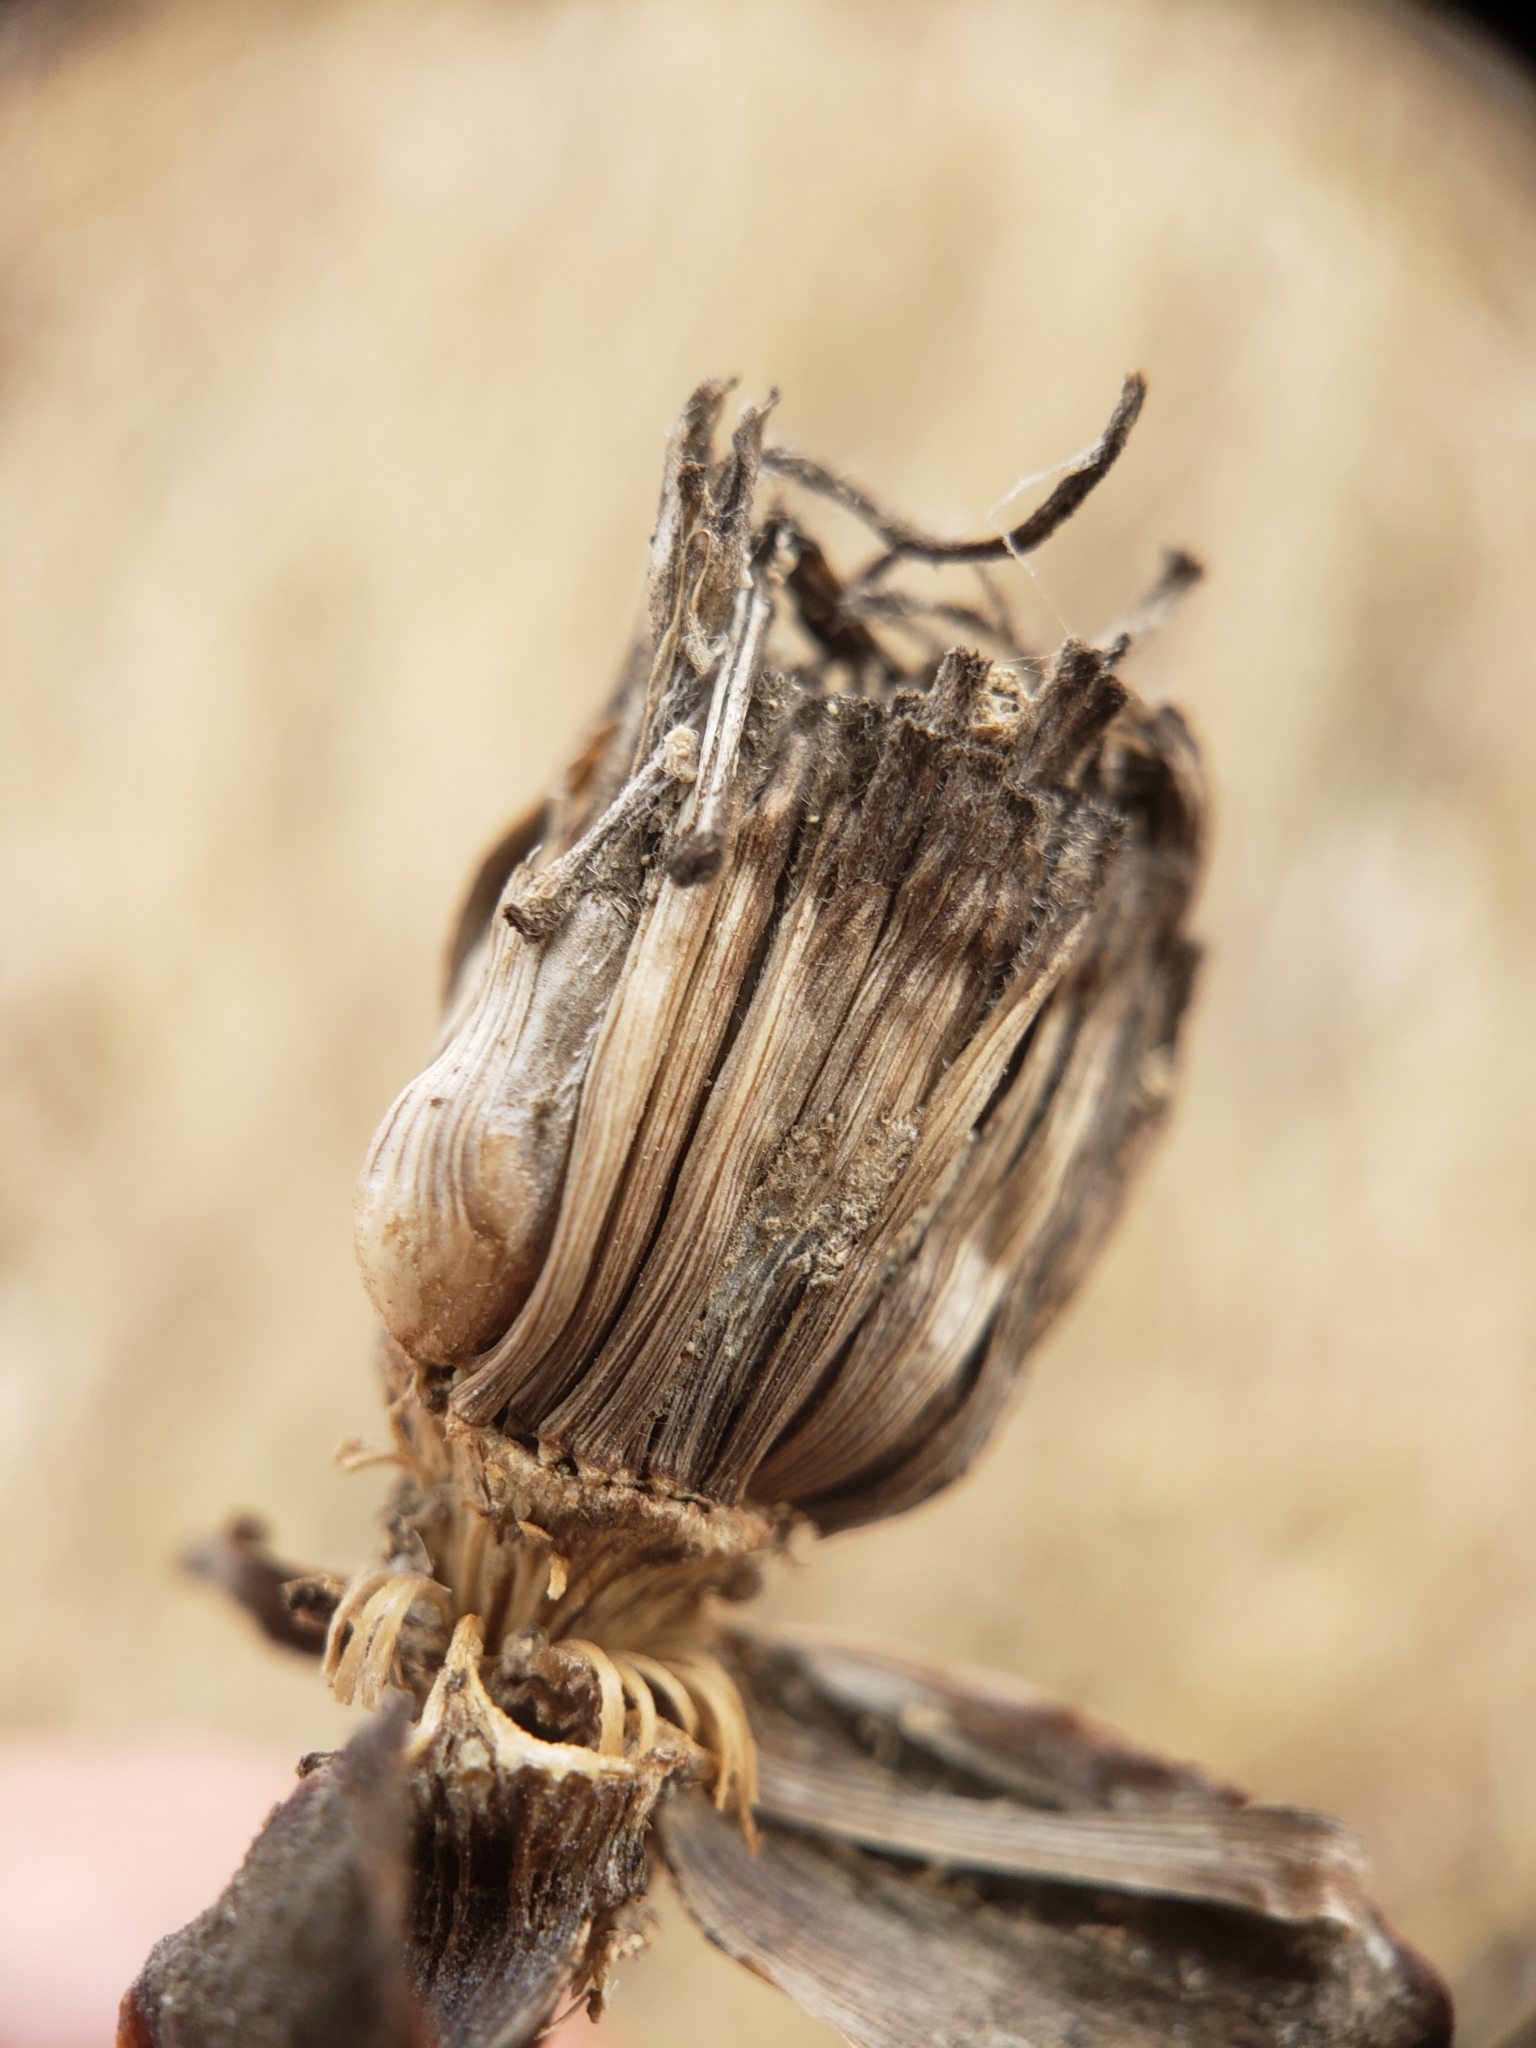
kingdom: Animalia
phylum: Arthropoda
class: Insecta
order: Hymenoptera
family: Cynipidae
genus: Antistrophus
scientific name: Antistrophus
